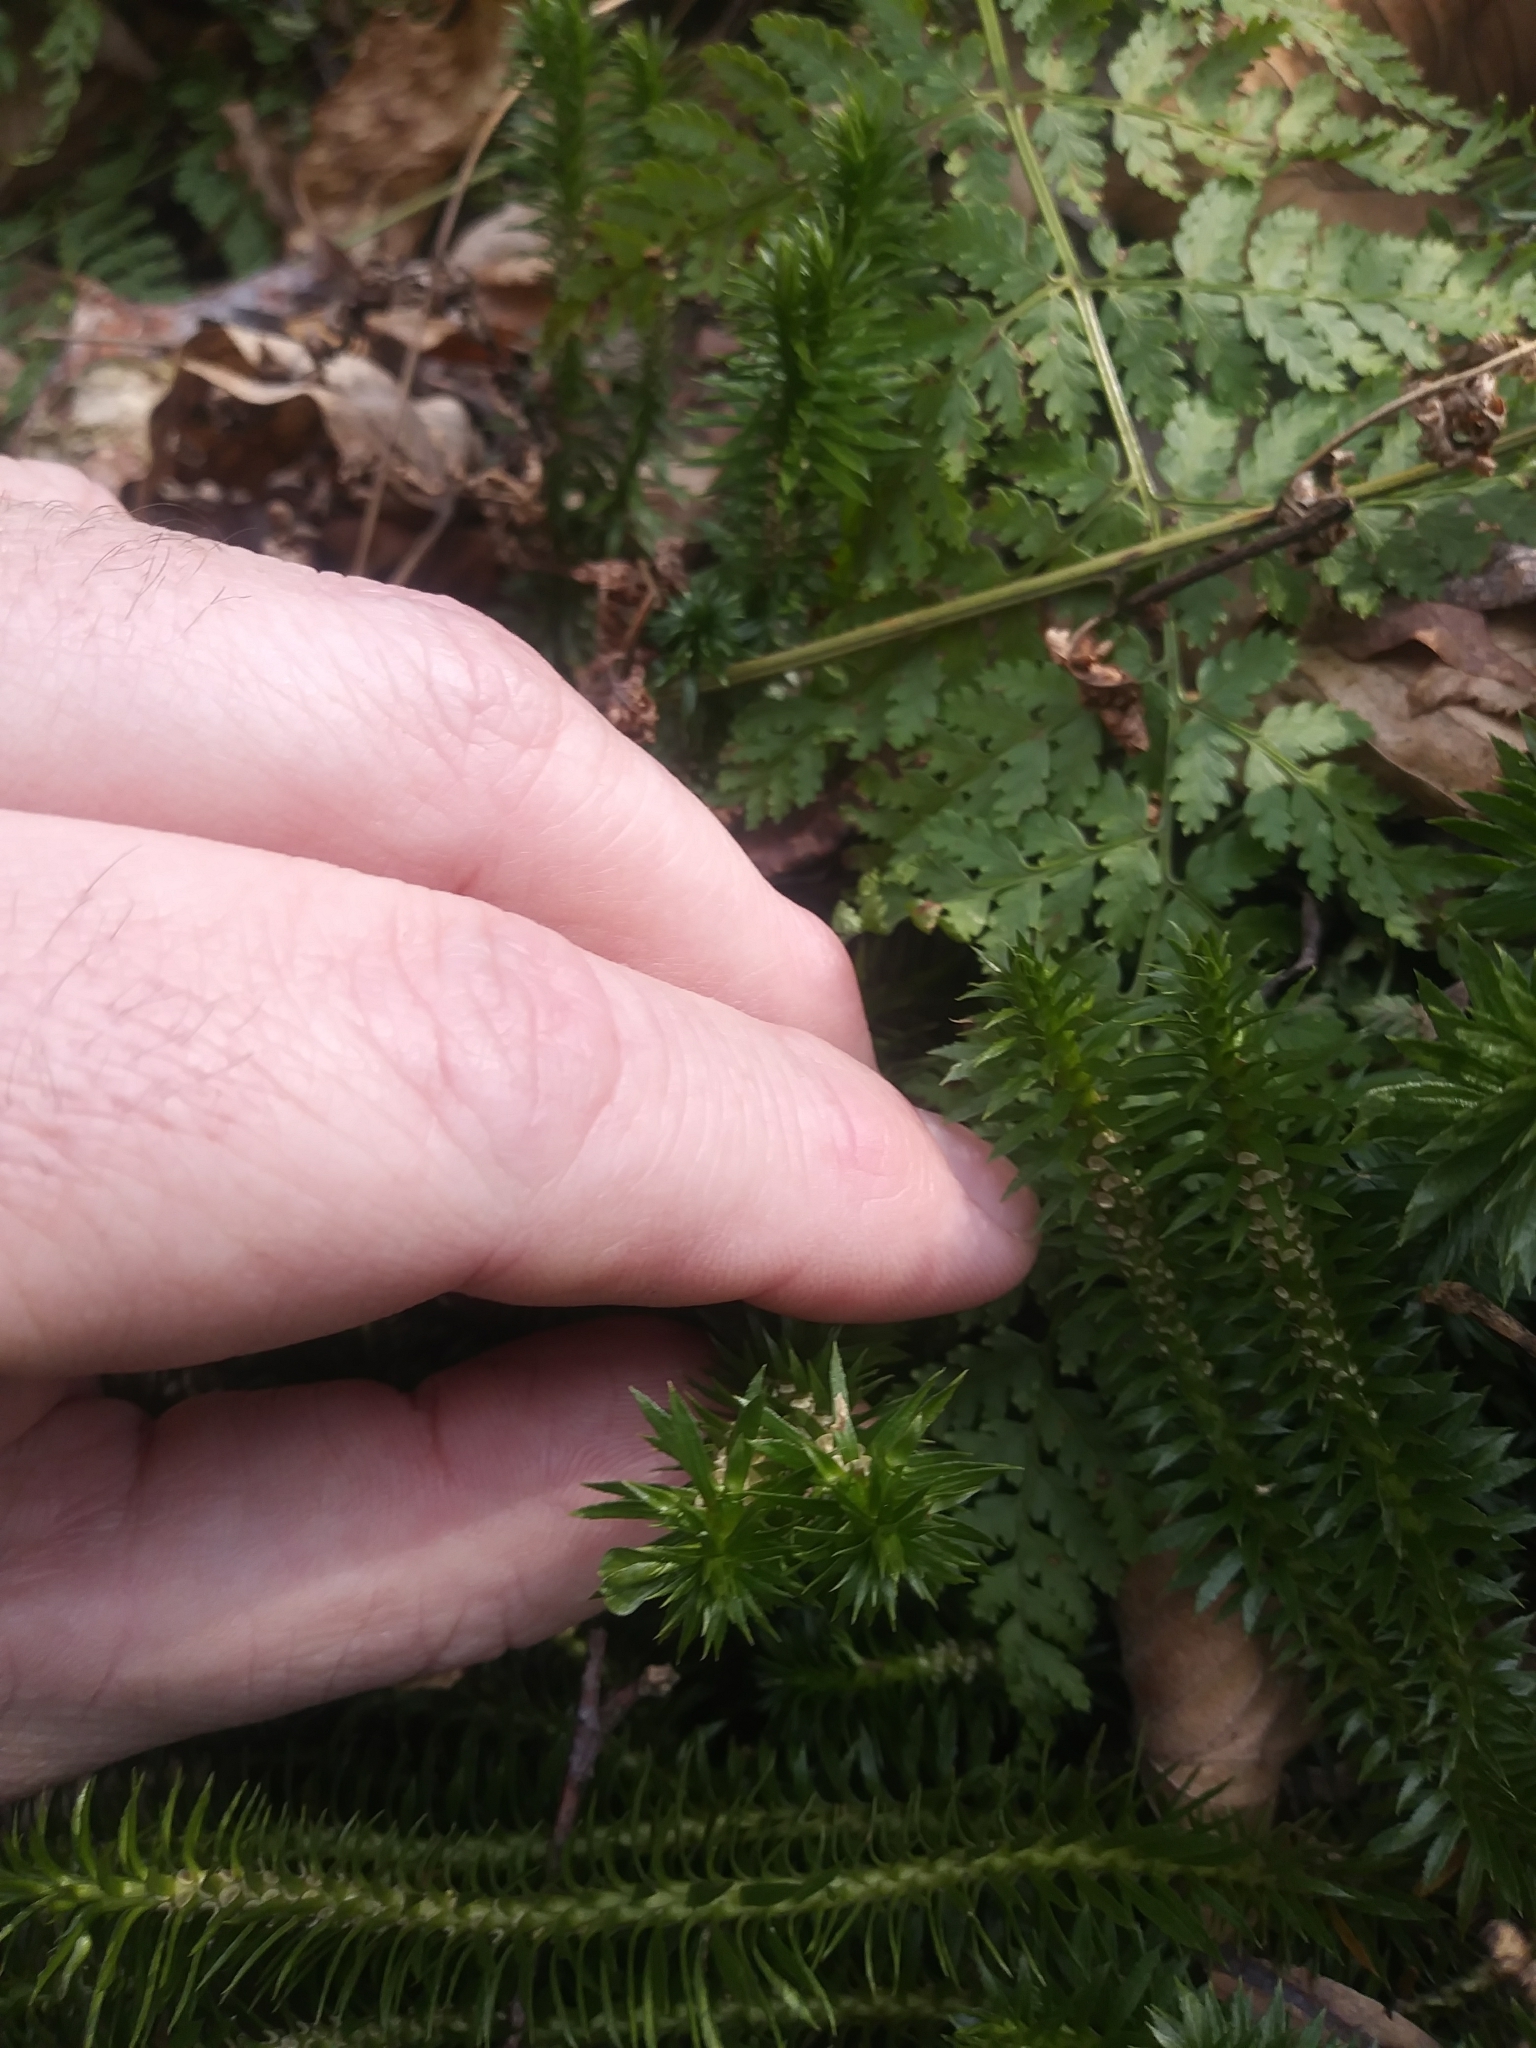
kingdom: Plantae
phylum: Tracheophyta
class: Lycopodiopsida
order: Lycopodiales
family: Lycopodiaceae
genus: Huperzia
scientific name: Huperzia lucidula
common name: Shining clubmoss
